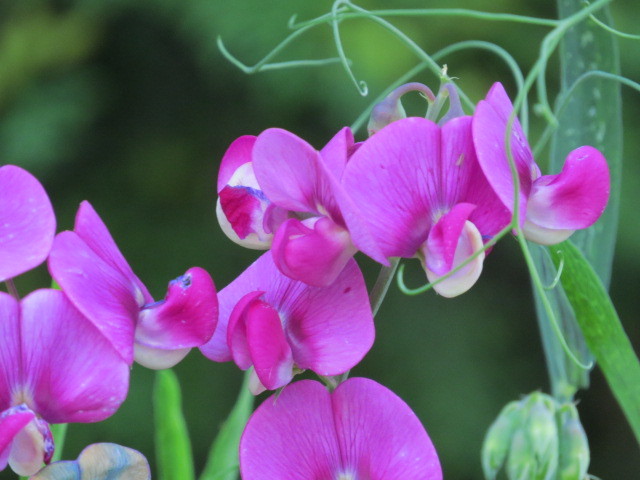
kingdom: Plantae
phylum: Tracheophyta
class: Magnoliopsida
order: Fabales
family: Fabaceae
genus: Lathyrus
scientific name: Lathyrus latifolius
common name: Perennial pea
